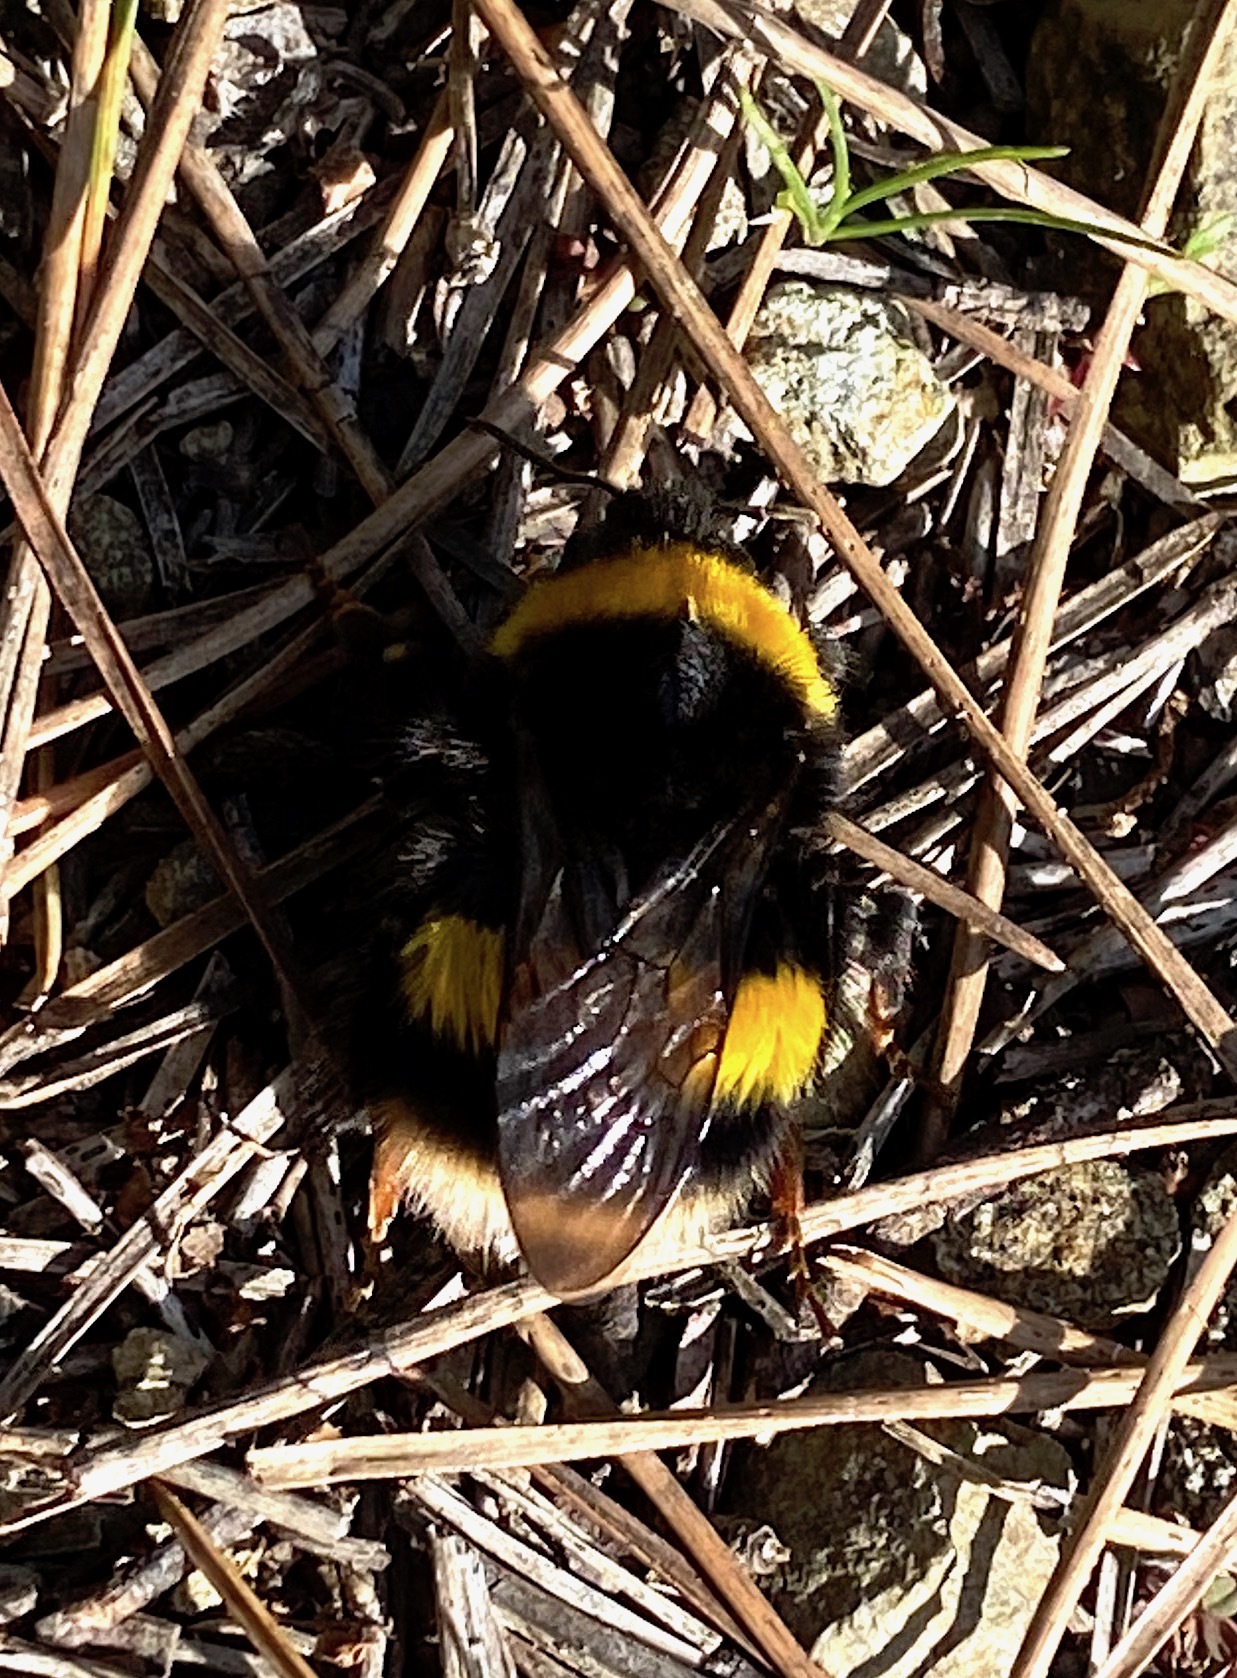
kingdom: Animalia
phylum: Arthropoda
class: Insecta
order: Hymenoptera
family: Apidae
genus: Bombus
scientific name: Bombus terrestris
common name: Buff-tailed bumblebee
